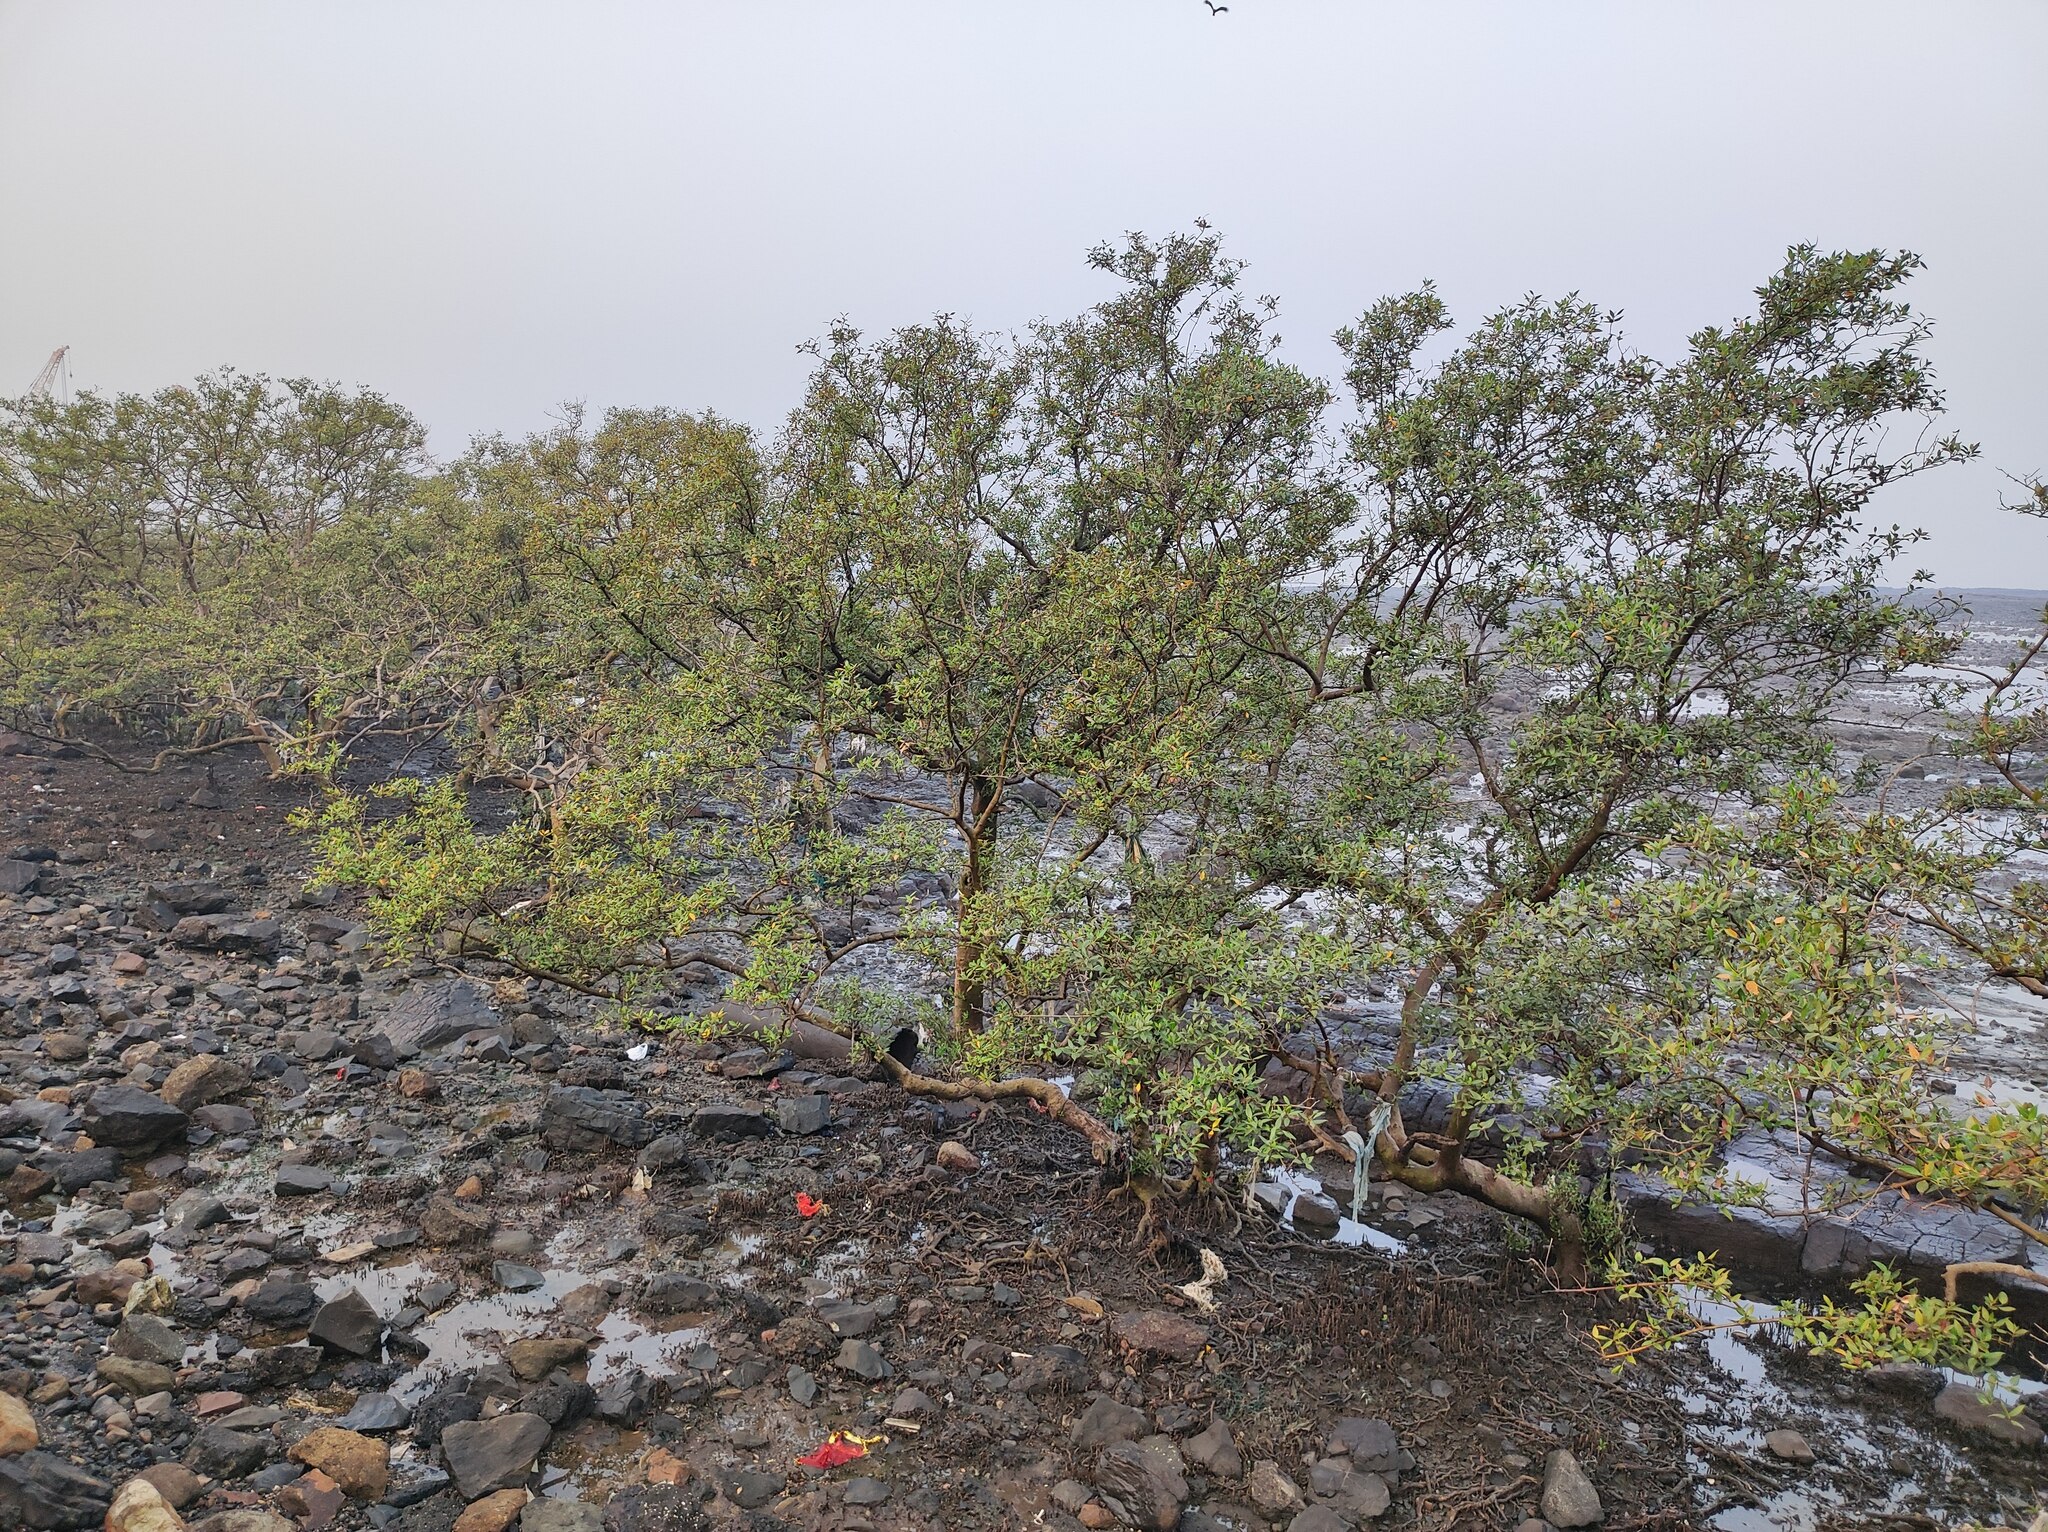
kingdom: Plantae
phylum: Tracheophyta
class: Magnoliopsida
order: Lamiales
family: Acanthaceae
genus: Avicennia
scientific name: Avicennia marina
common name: Gray mangrove
